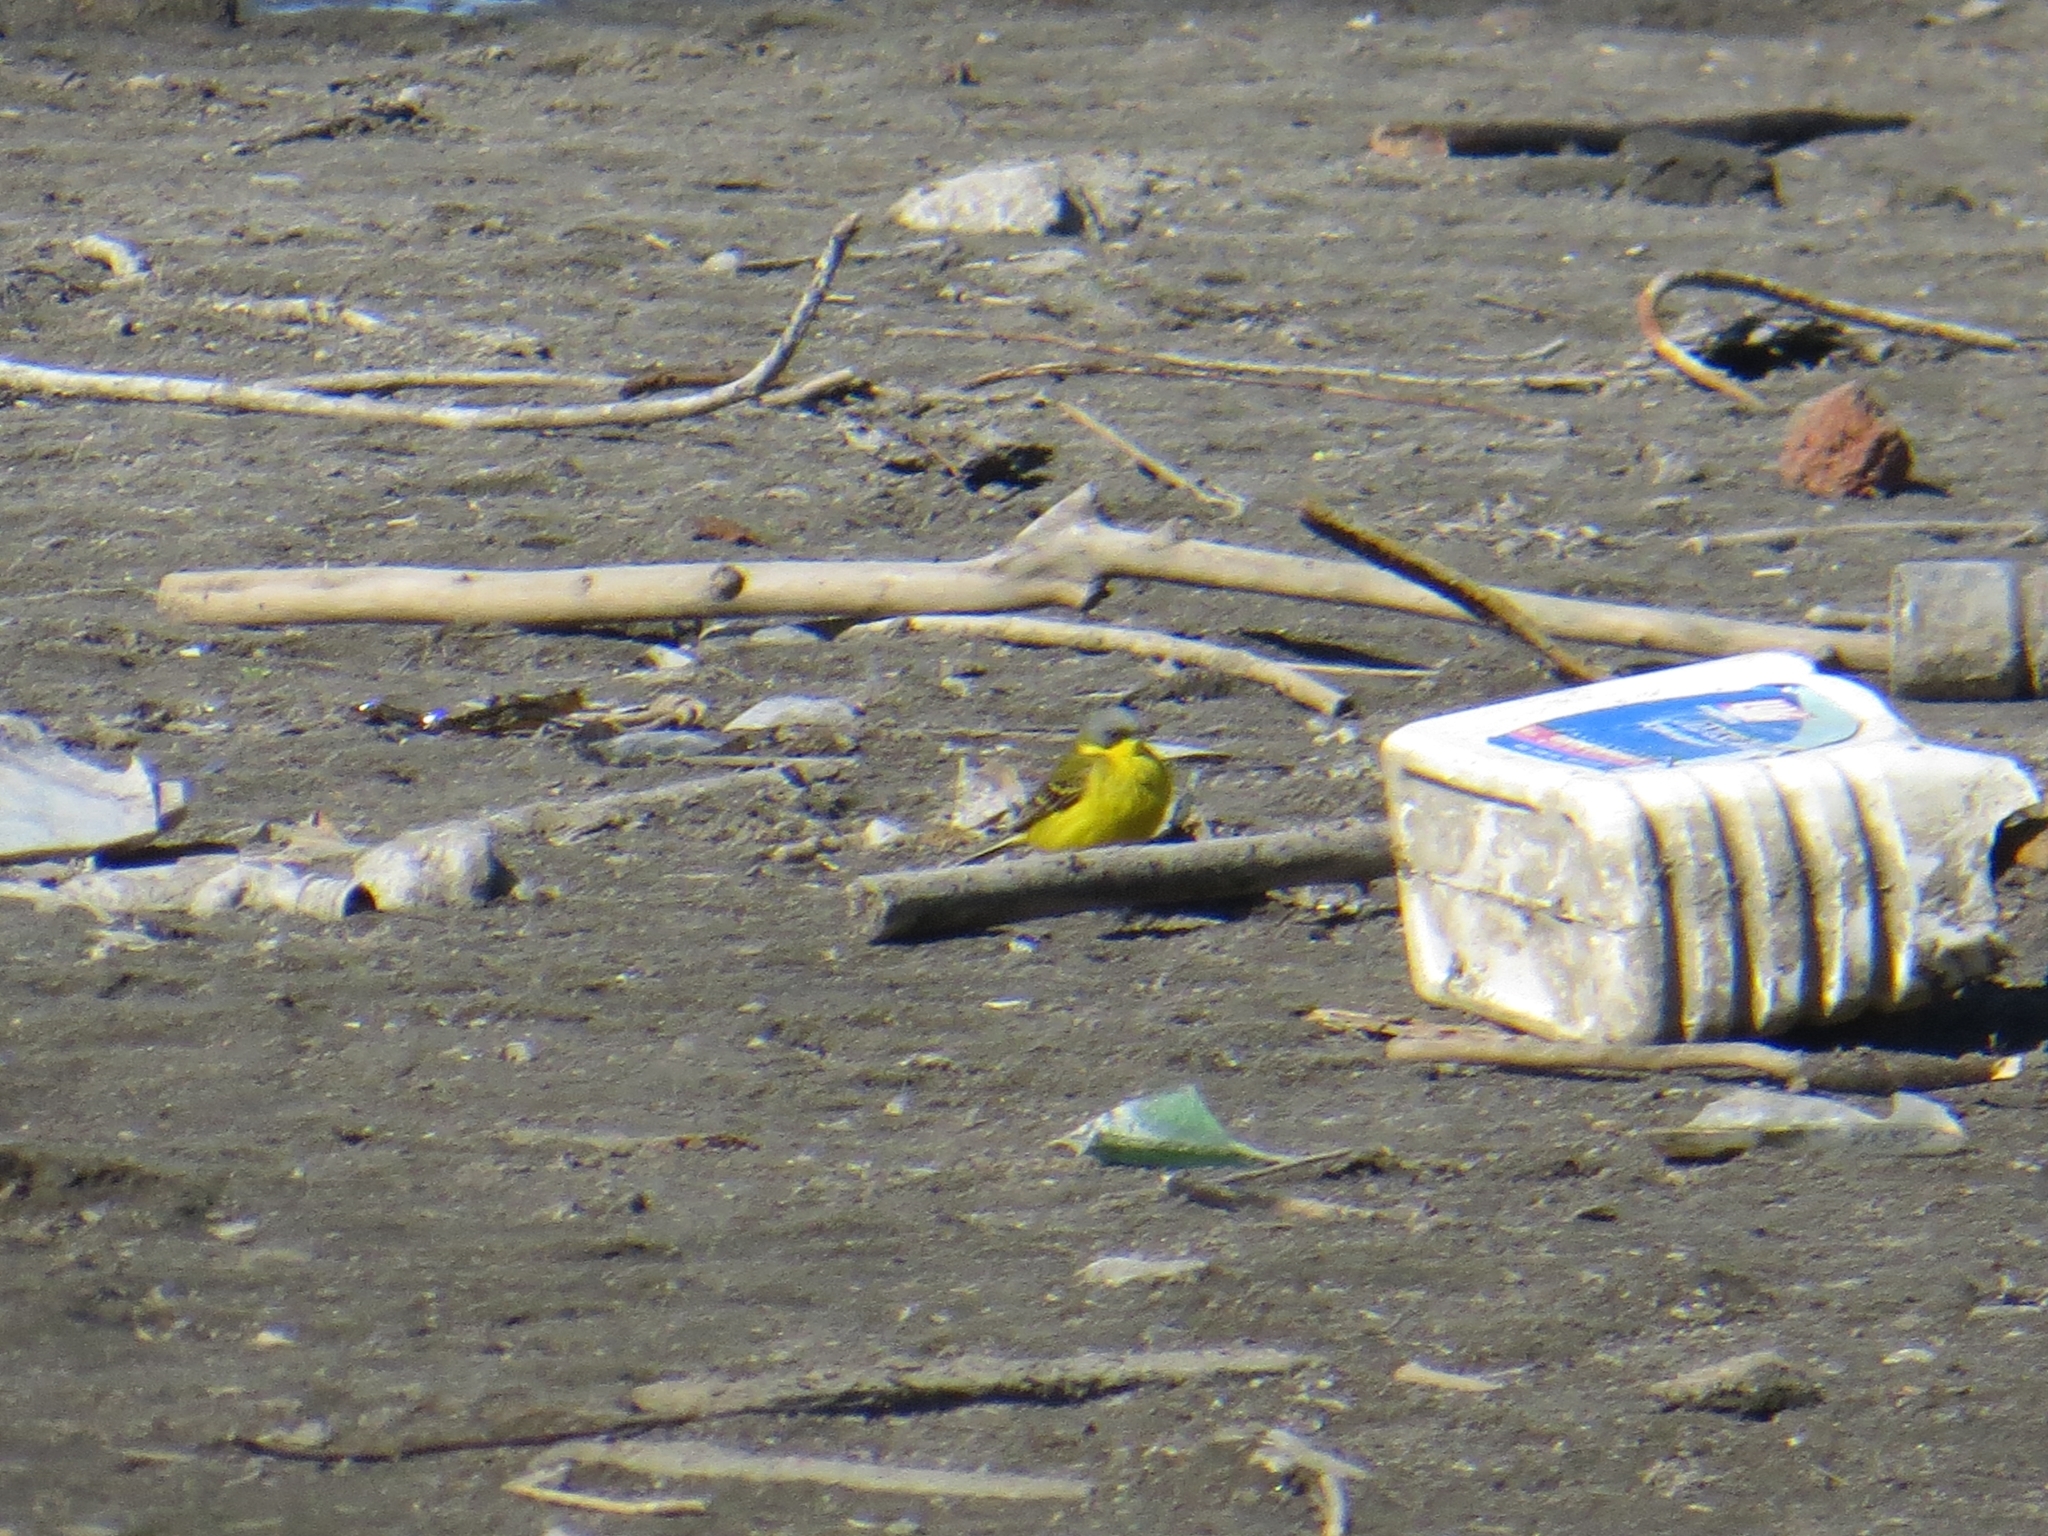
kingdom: Animalia
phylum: Chordata
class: Aves
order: Passeriformes
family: Motacillidae
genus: Motacilla
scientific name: Motacilla flava
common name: Western yellow wagtail
